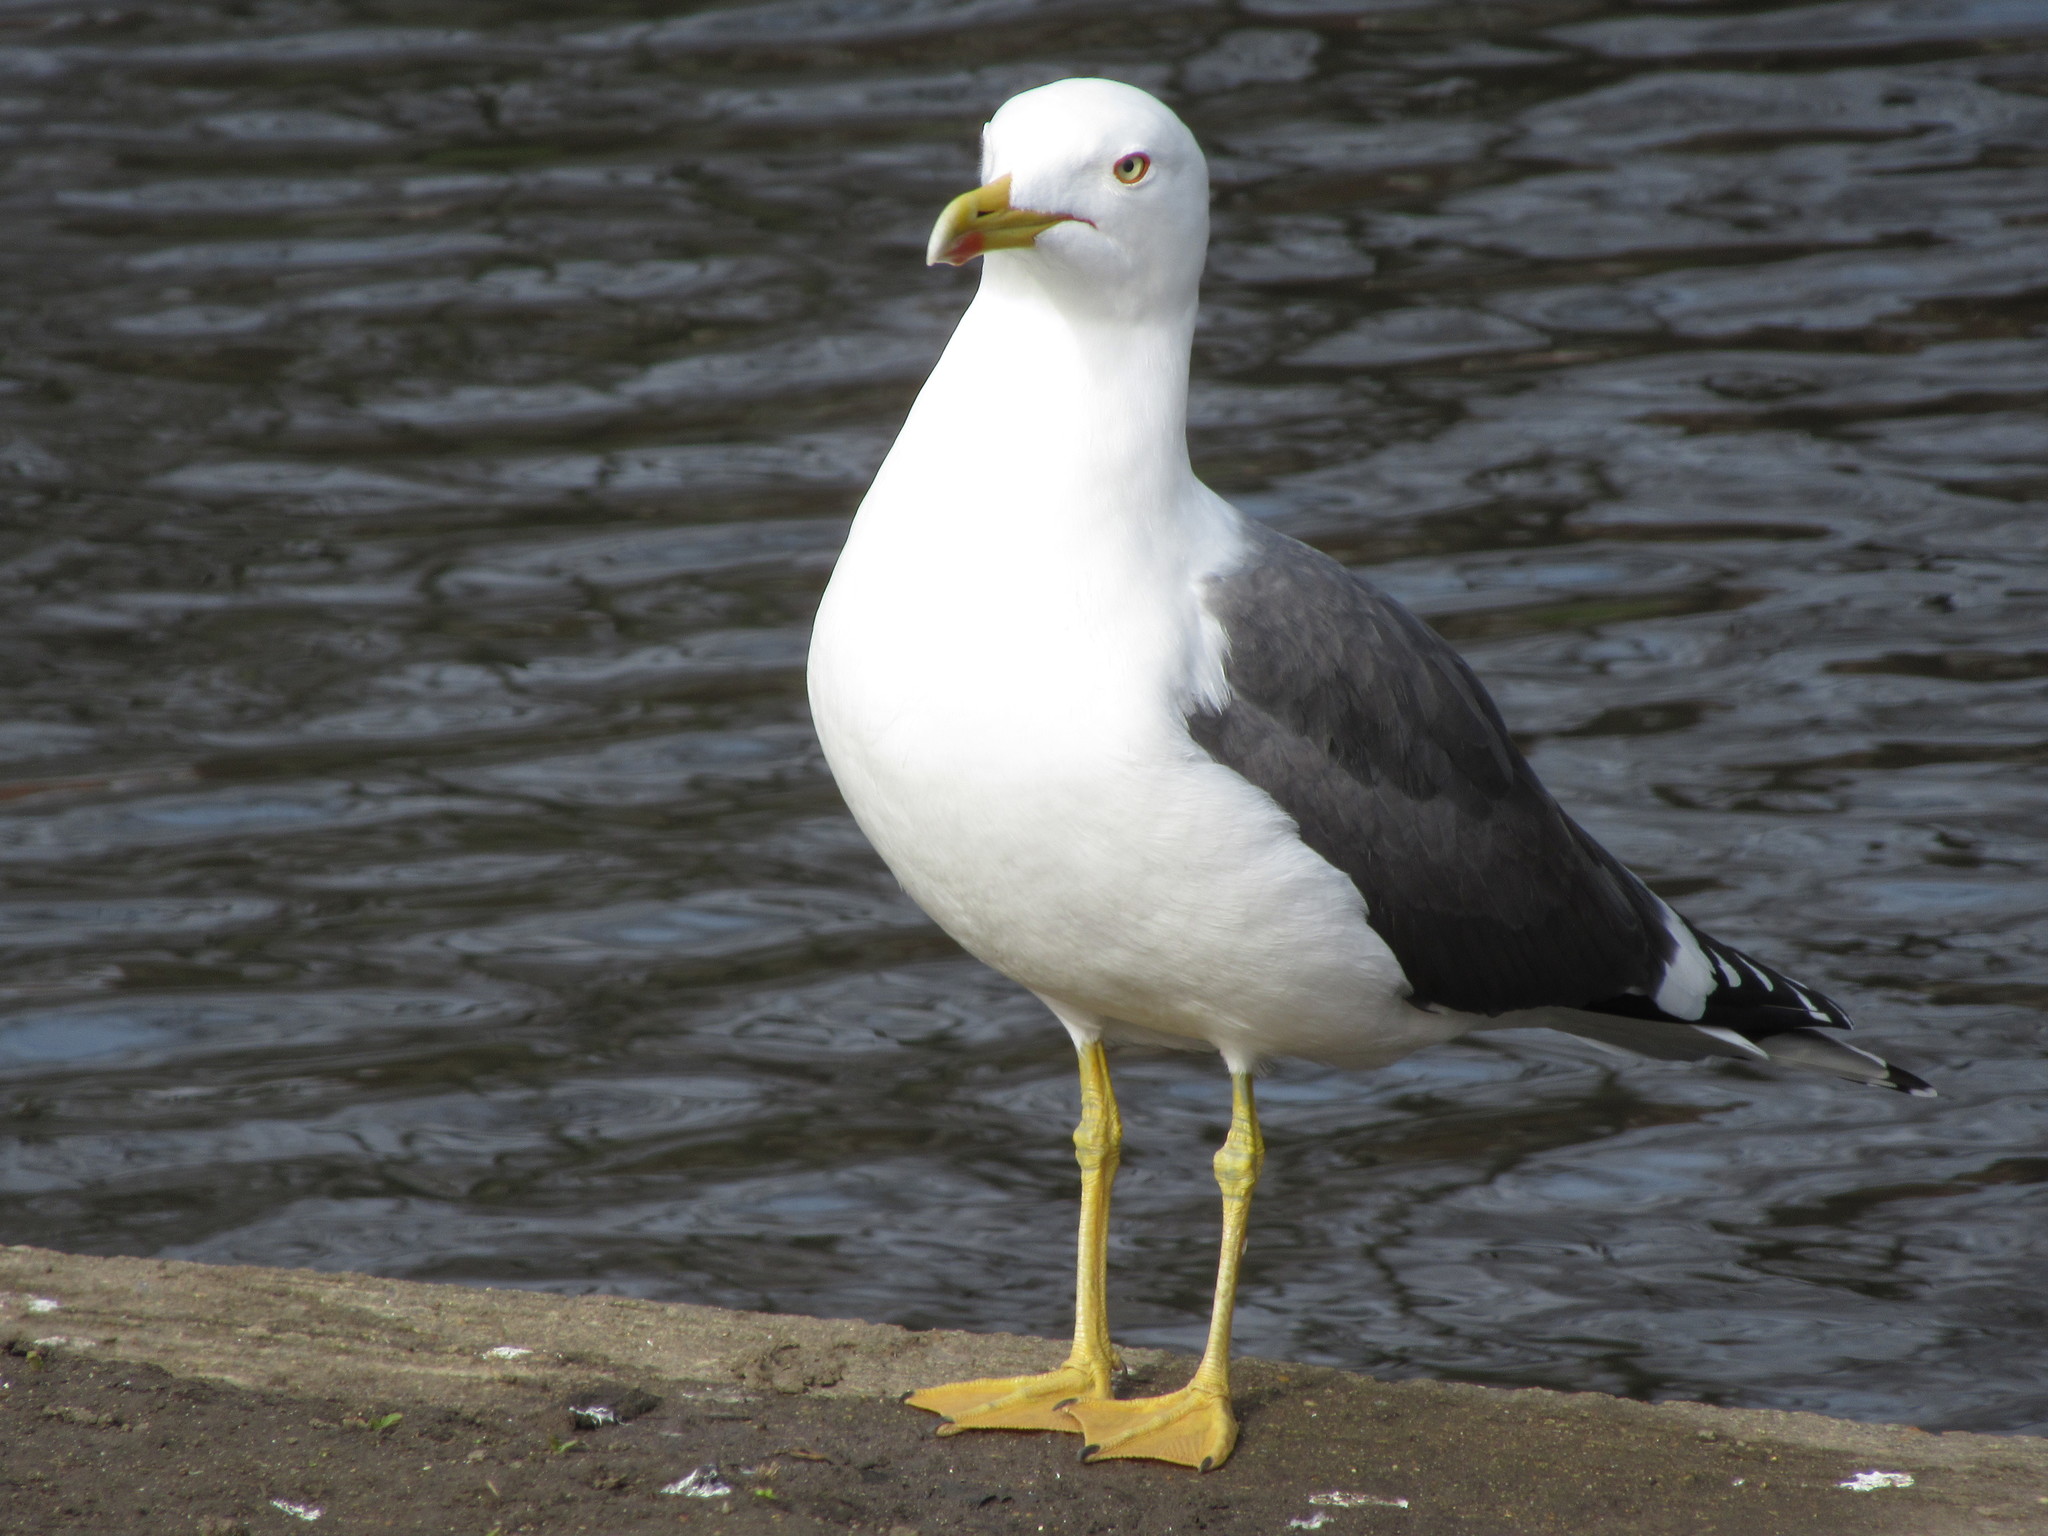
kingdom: Animalia
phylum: Chordata
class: Aves
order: Charadriiformes
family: Laridae
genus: Larus
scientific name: Larus fuscus
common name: Lesser black-backed gull
